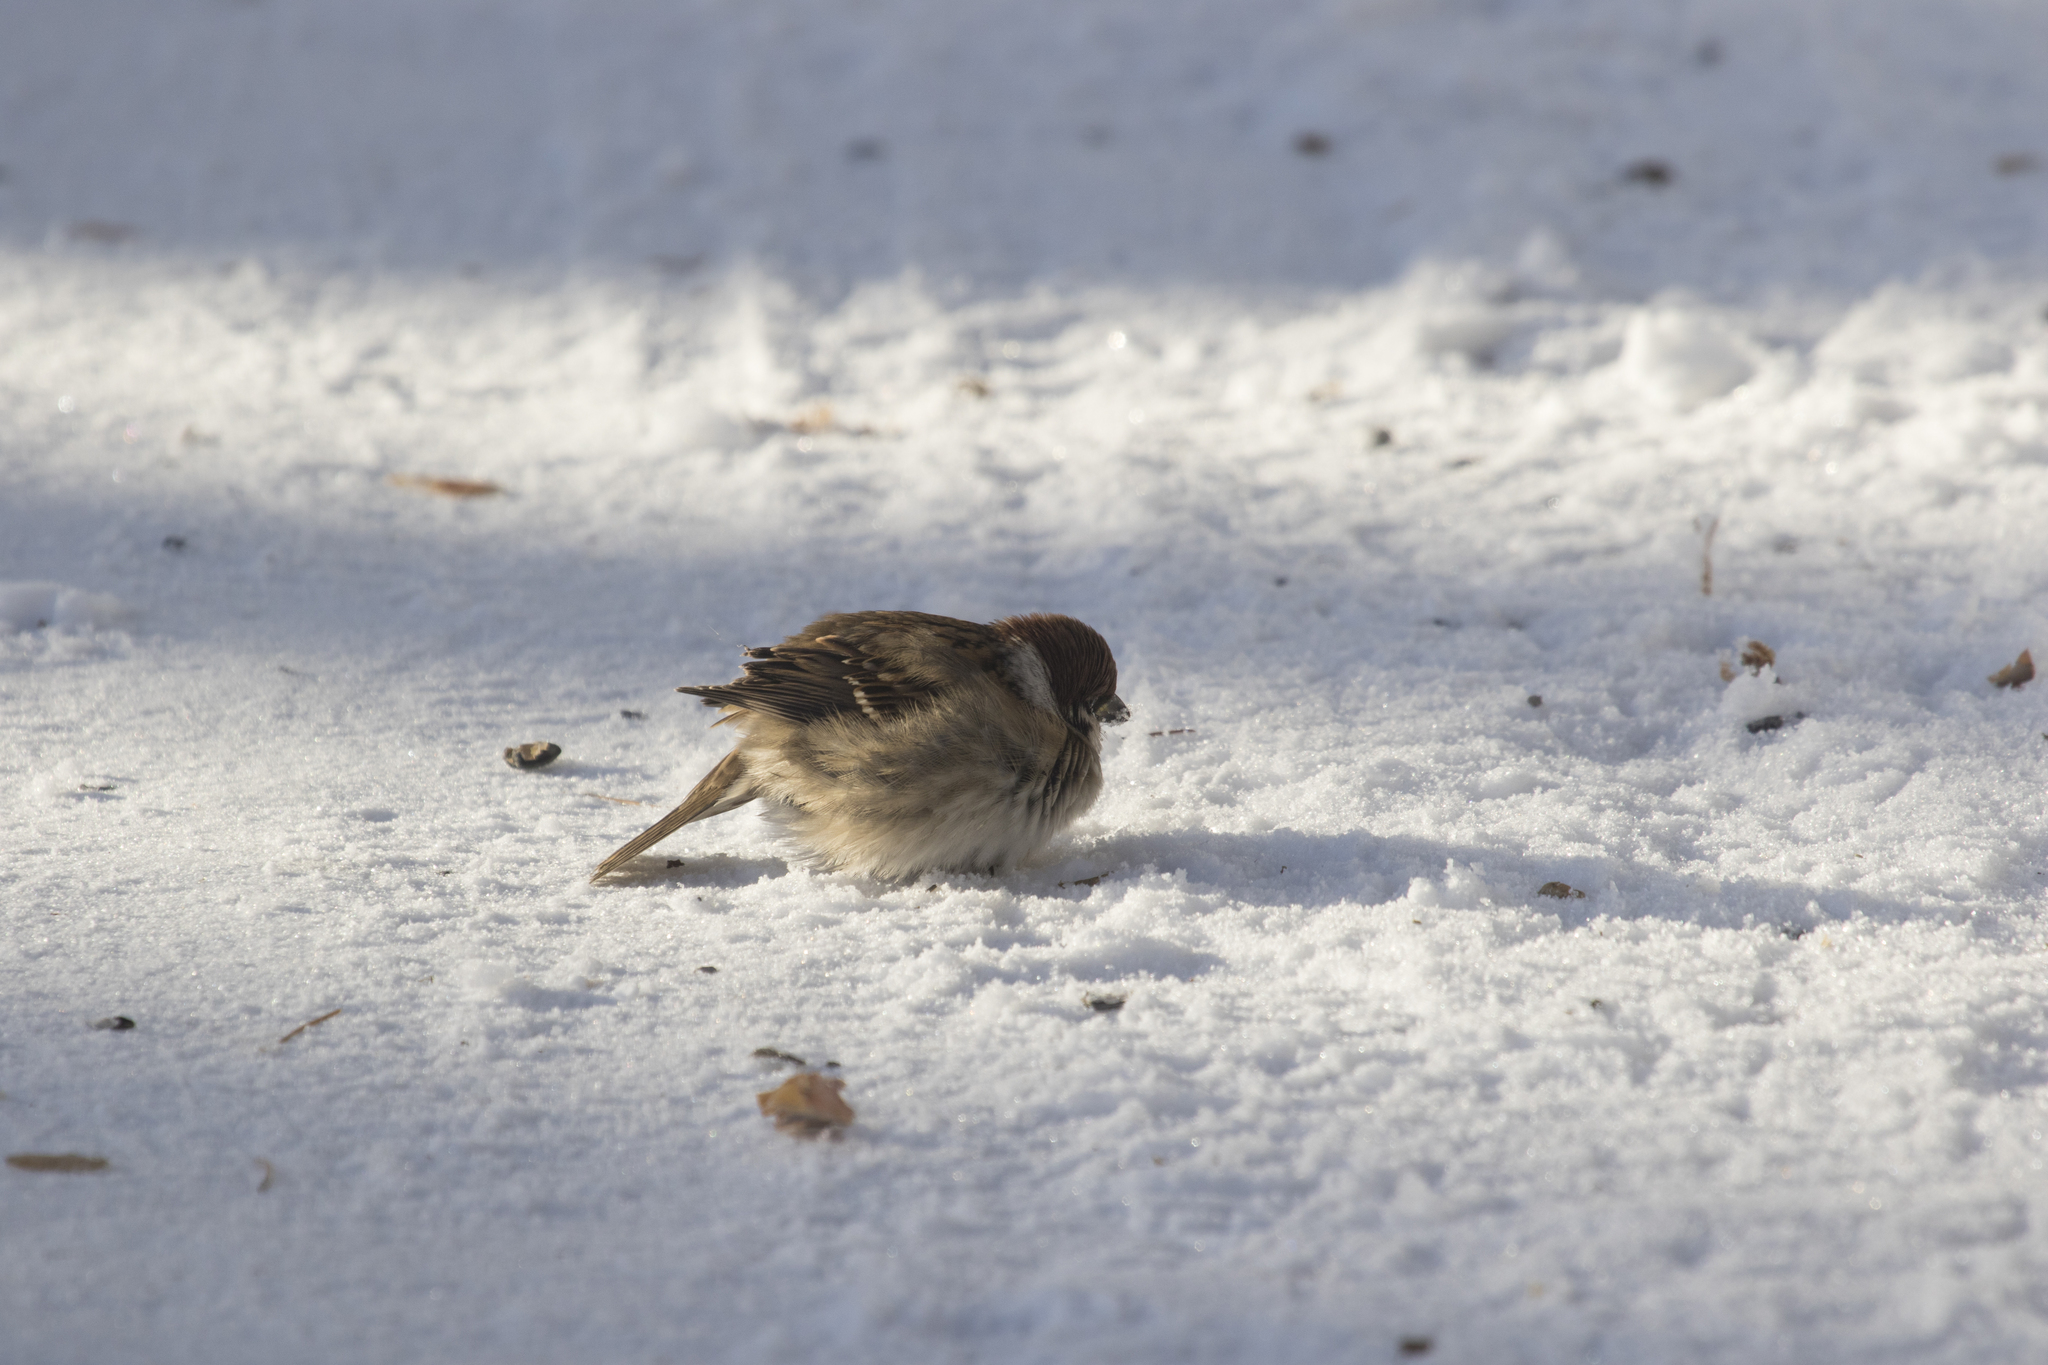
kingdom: Animalia
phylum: Chordata
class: Aves
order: Passeriformes
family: Passeridae
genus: Passer
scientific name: Passer montanus
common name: Eurasian tree sparrow
